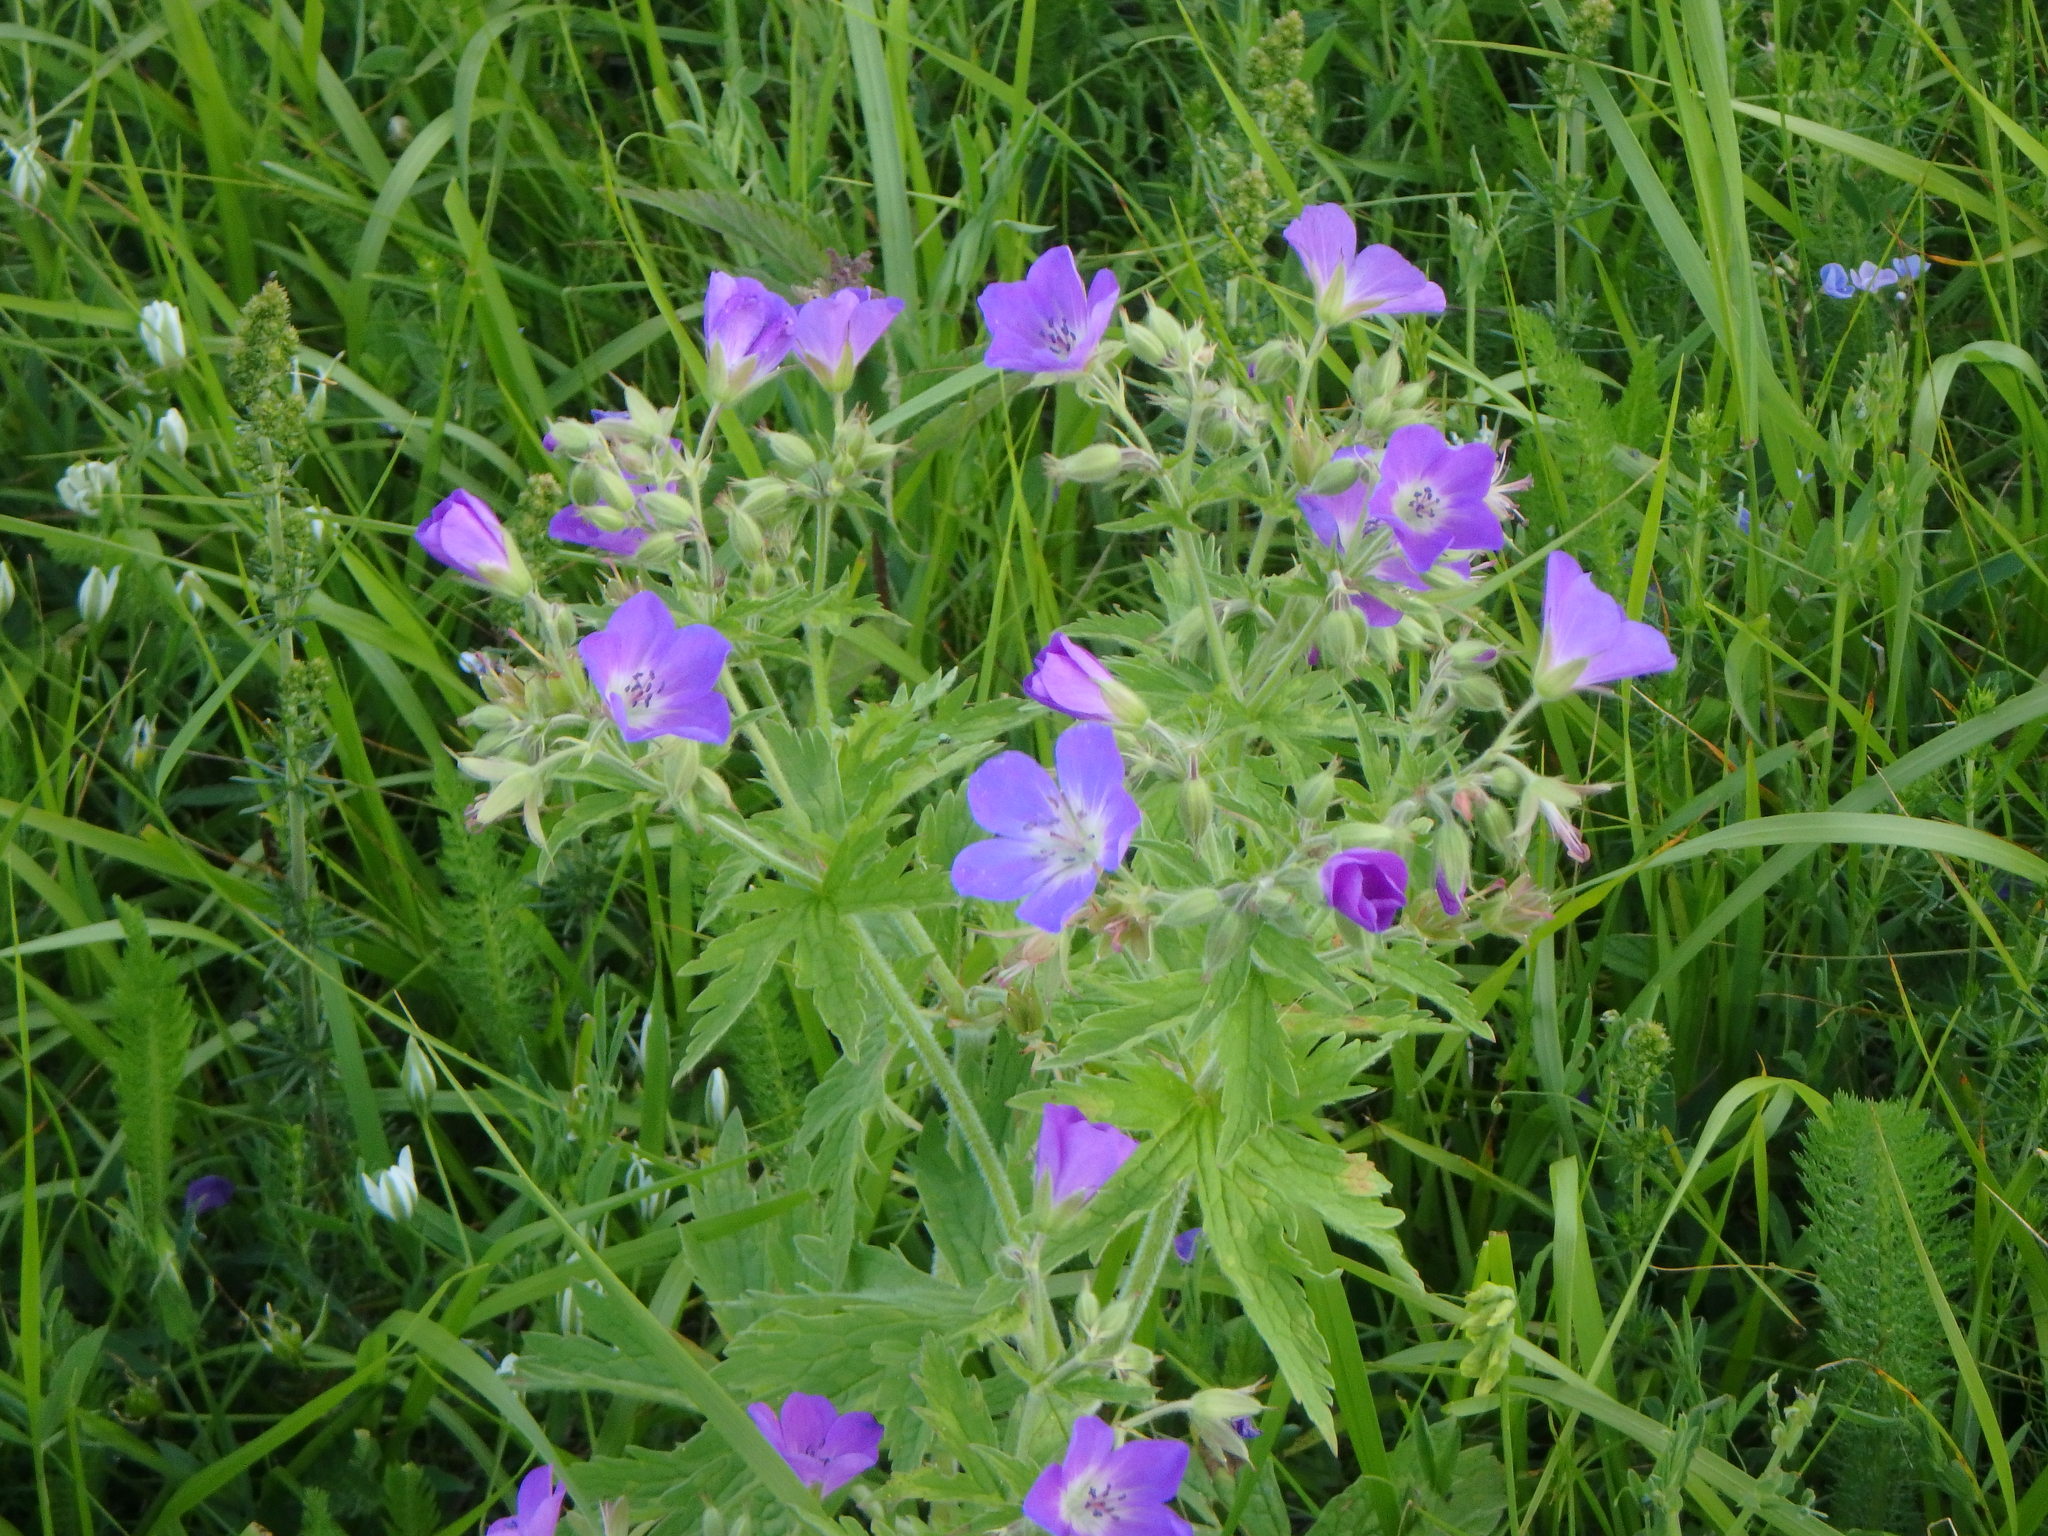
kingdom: Plantae
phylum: Tracheophyta
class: Magnoliopsida
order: Geraniales
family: Geraniaceae
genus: Geranium
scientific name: Geranium sylvaticum
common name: Wood crane's-bill
